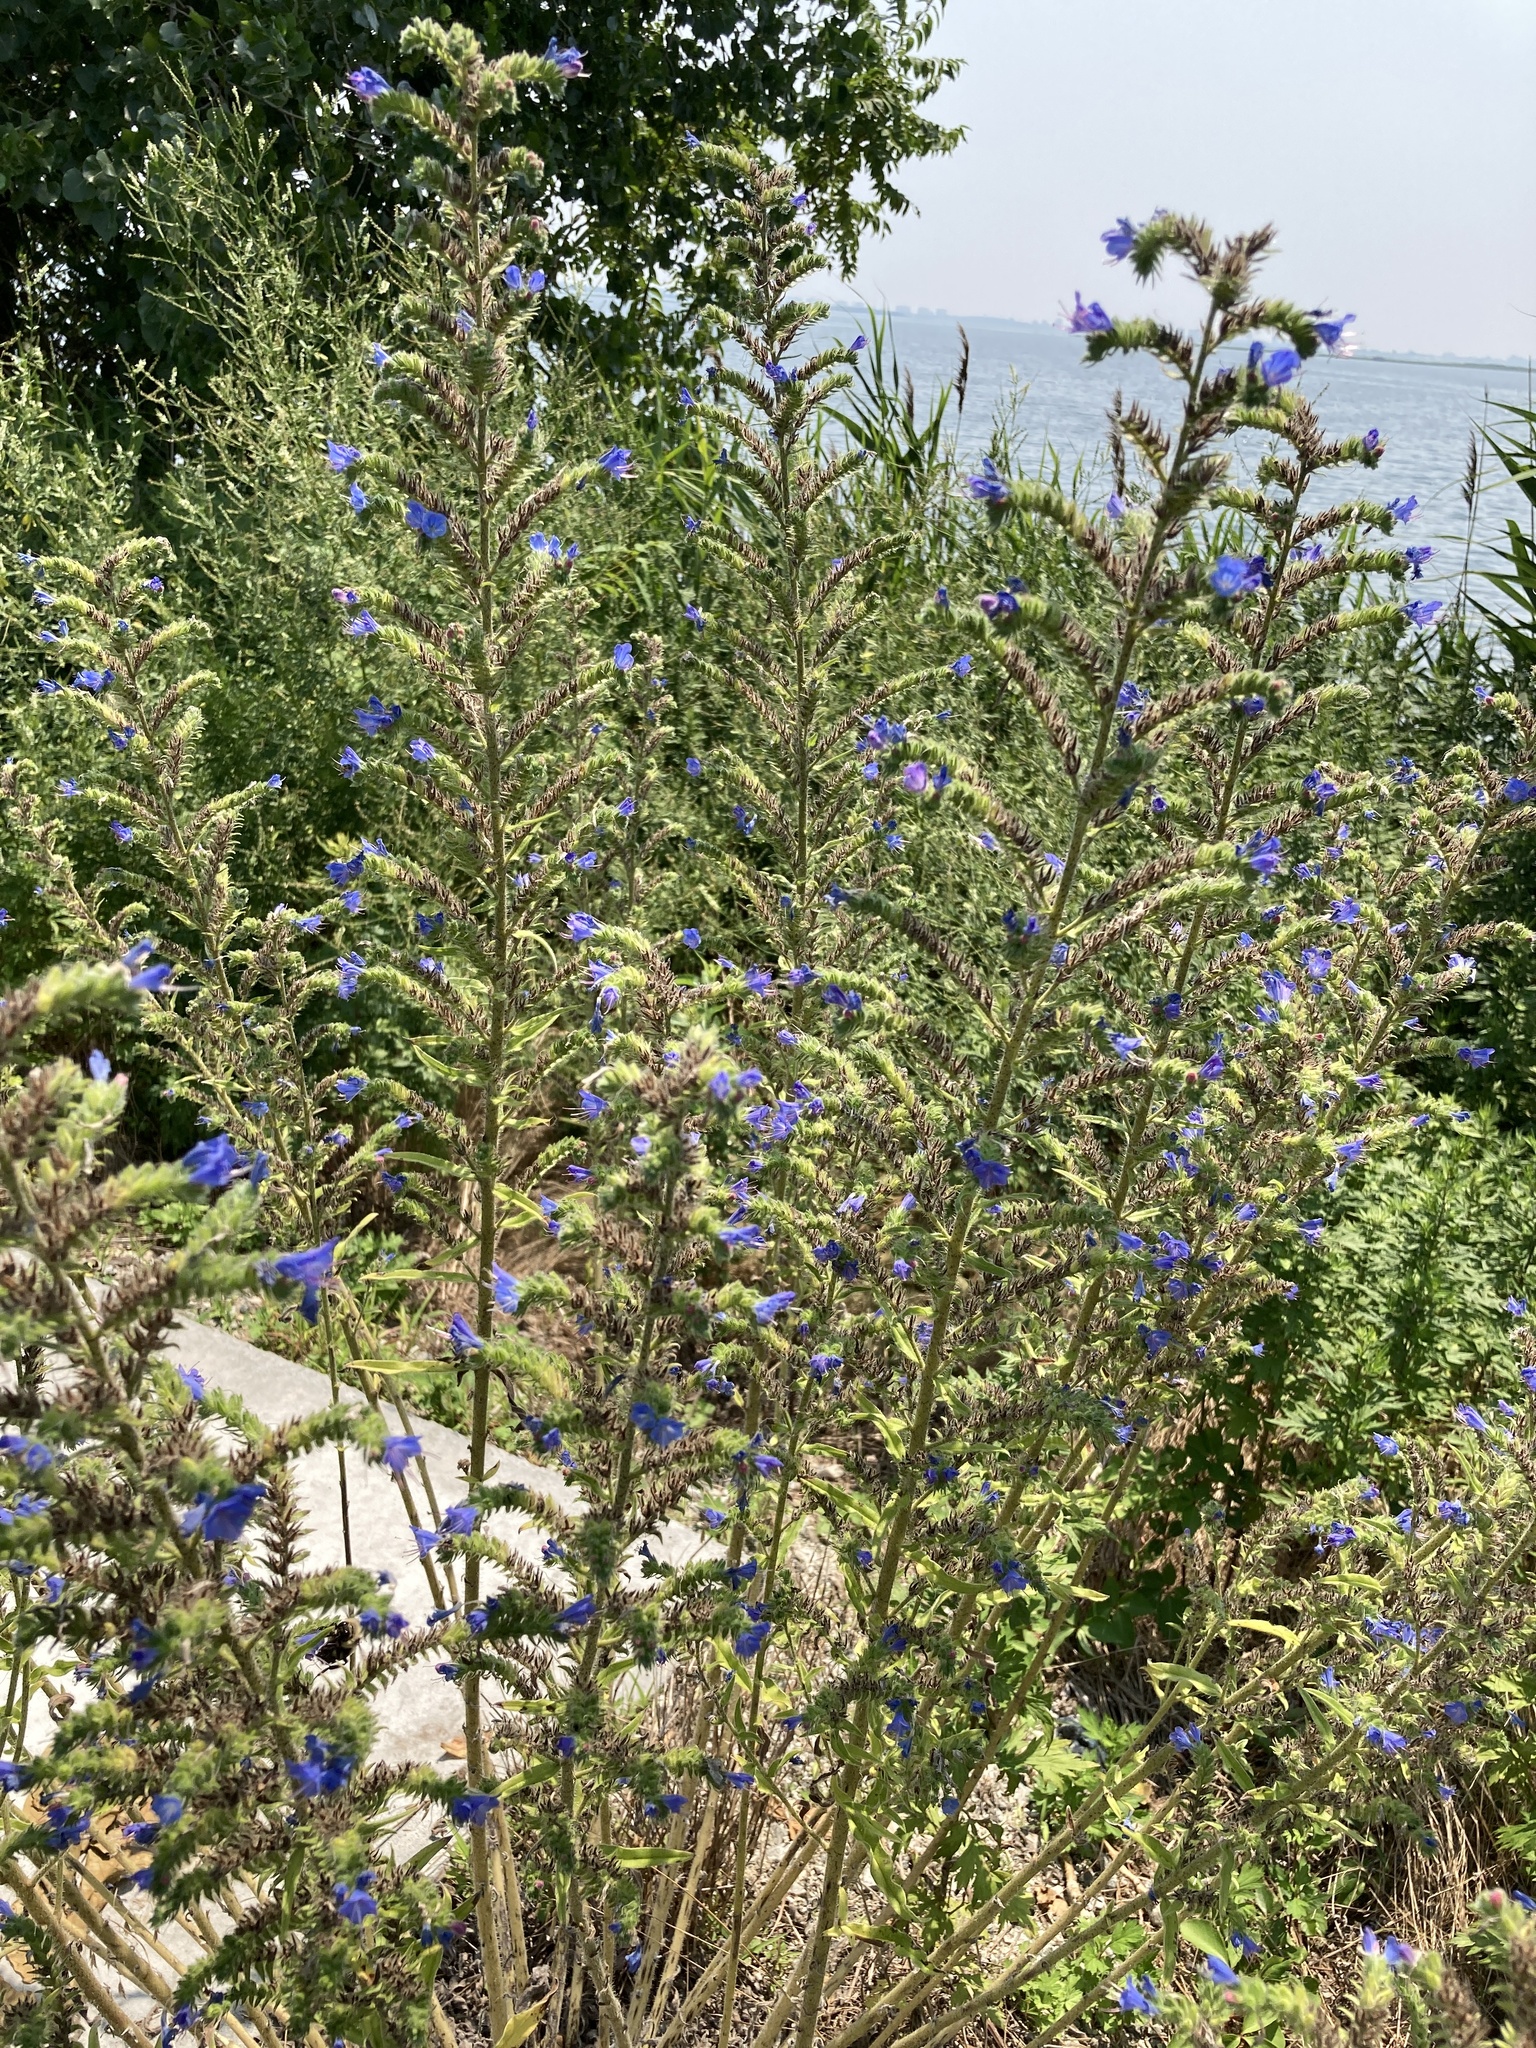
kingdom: Plantae
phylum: Tracheophyta
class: Magnoliopsida
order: Boraginales
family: Boraginaceae
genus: Echium
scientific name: Echium vulgare
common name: Common viper's bugloss
